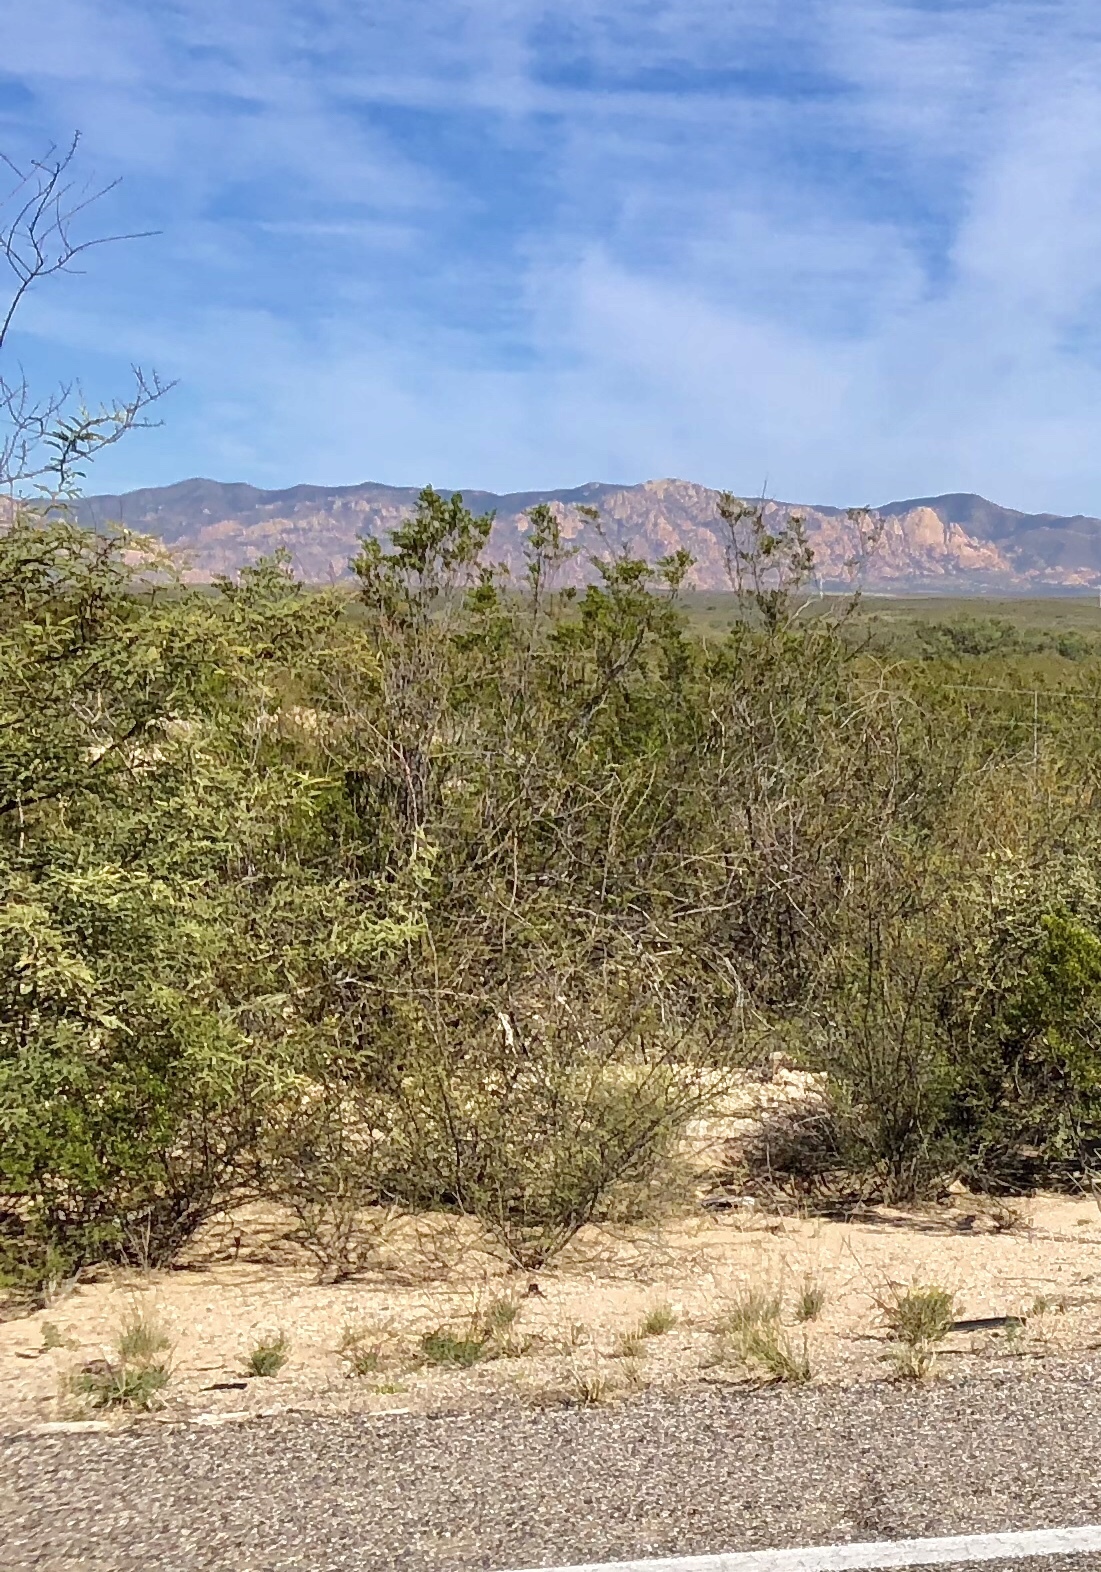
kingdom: Plantae
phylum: Tracheophyta
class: Magnoliopsida
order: Zygophyllales
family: Zygophyllaceae
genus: Larrea
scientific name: Larrea tridentata
